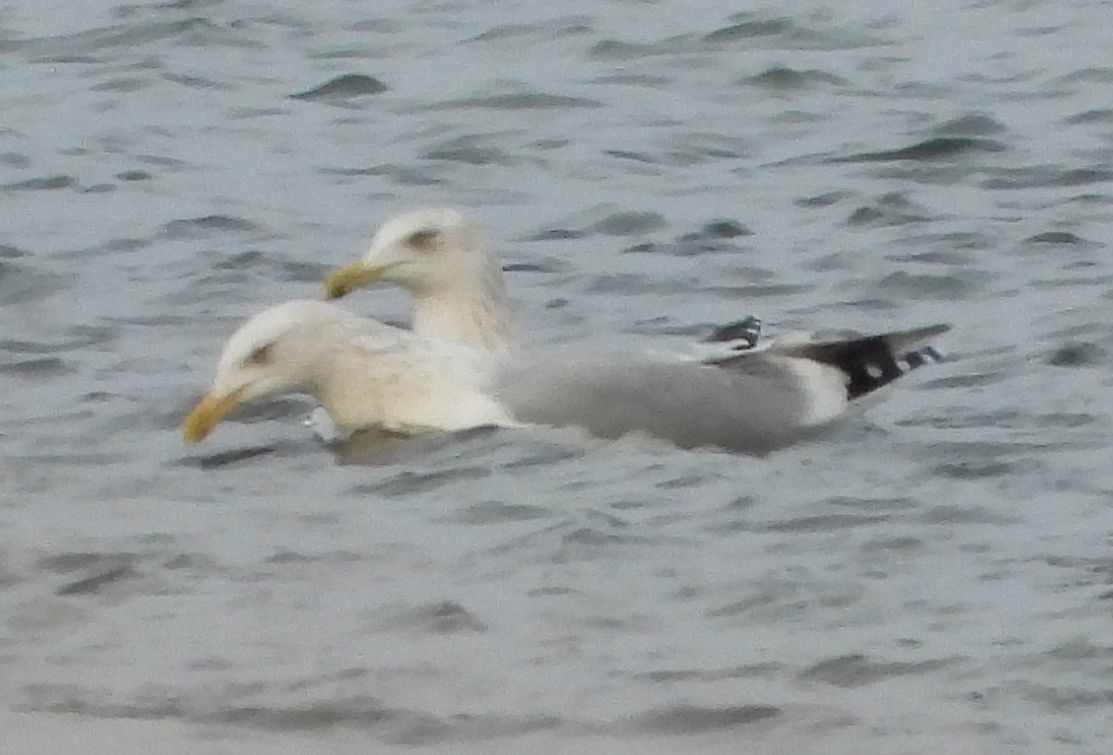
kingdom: Animalia
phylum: Chordata
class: Aves
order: Charadriiformes
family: Laridae
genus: Larus
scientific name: Larus argentatus
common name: Herring gull
